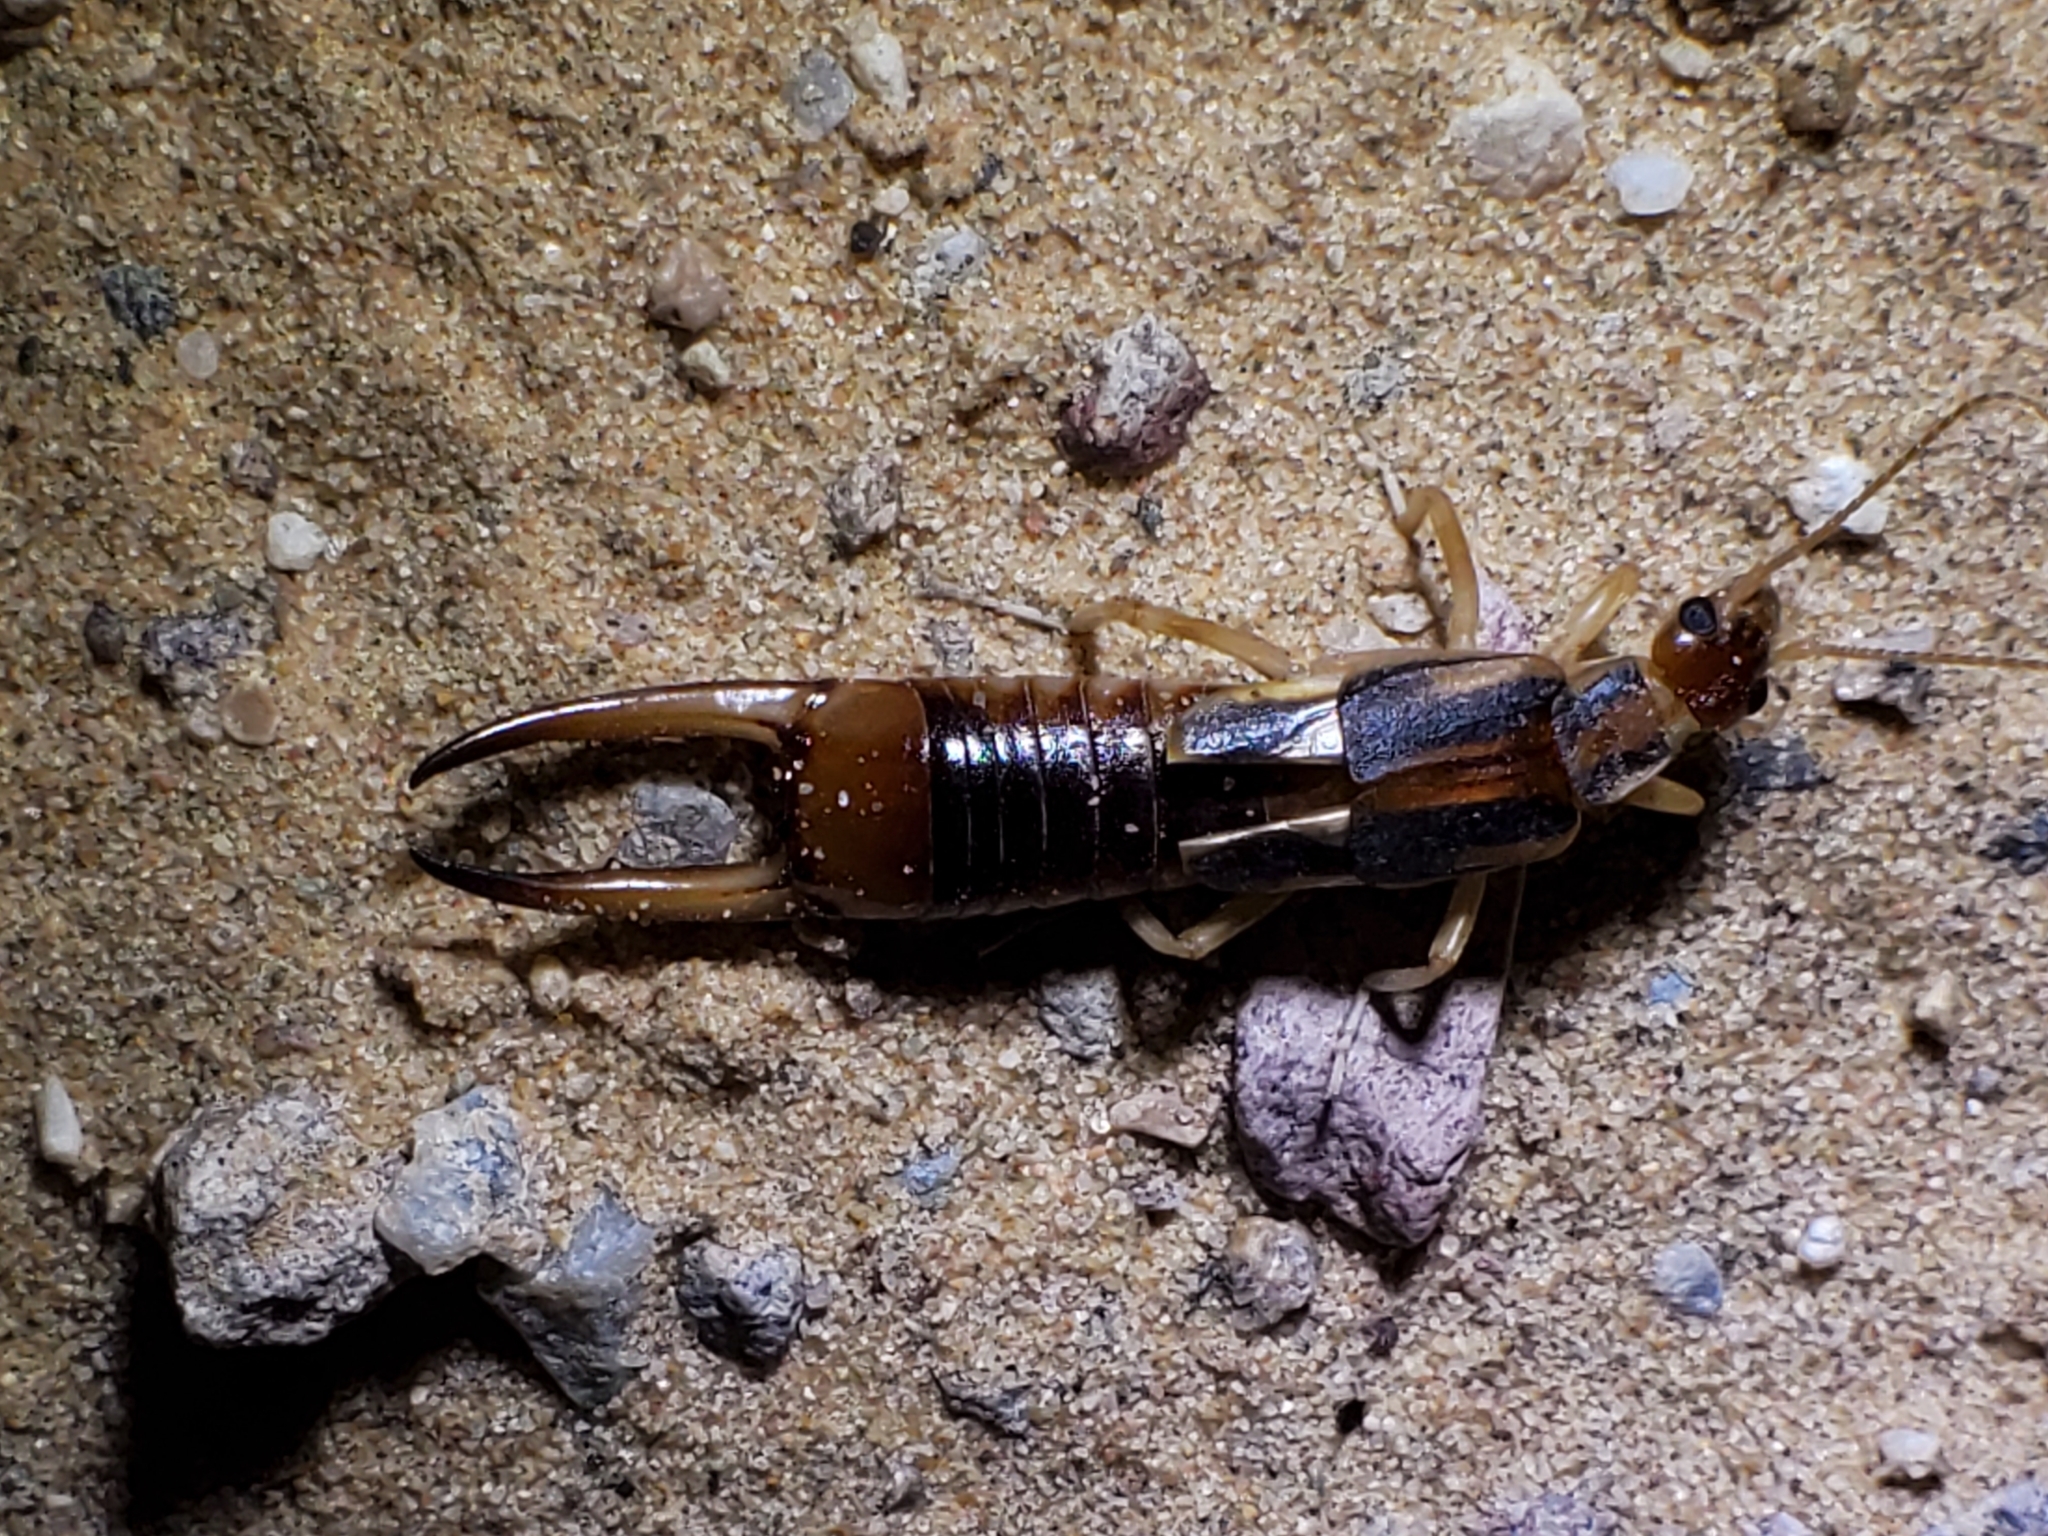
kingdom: Animalia
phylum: Arthropoda
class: Insecta
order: Dermaptera
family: Labiduridae
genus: Labidura
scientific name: Labidura riparia
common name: Striped earwig
